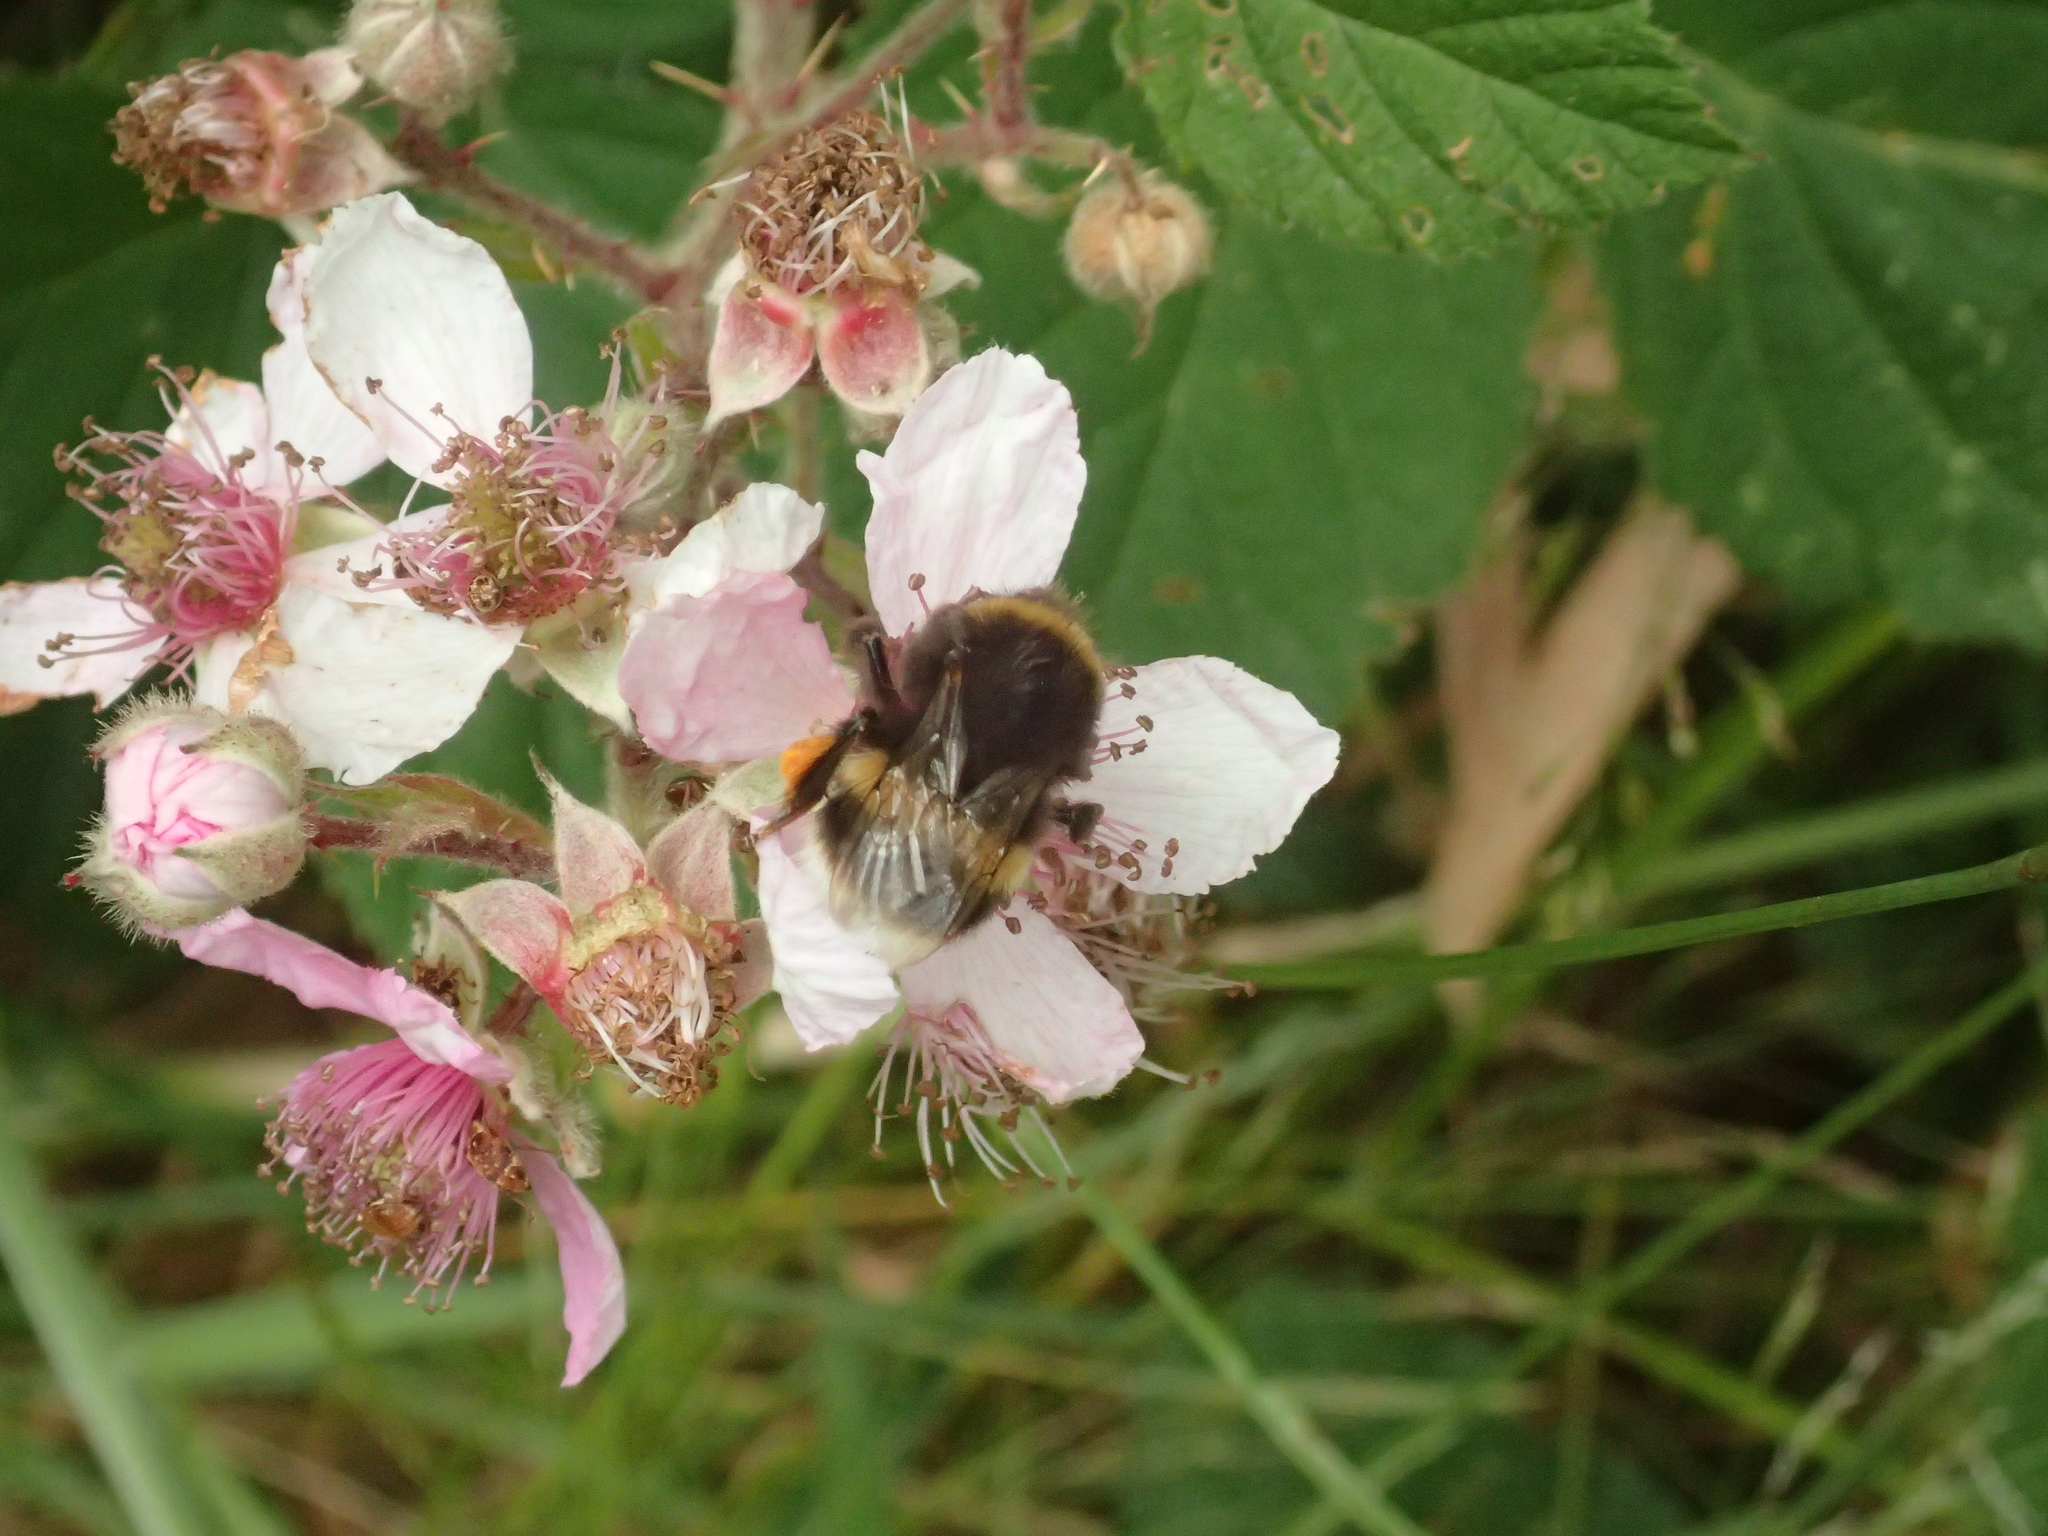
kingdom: Animalia
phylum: Arthropoda
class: Insecta
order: Hymenoptera
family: Apidae
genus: Bombus
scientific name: Bombus terrestris
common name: Buff-tailed bumblebee
